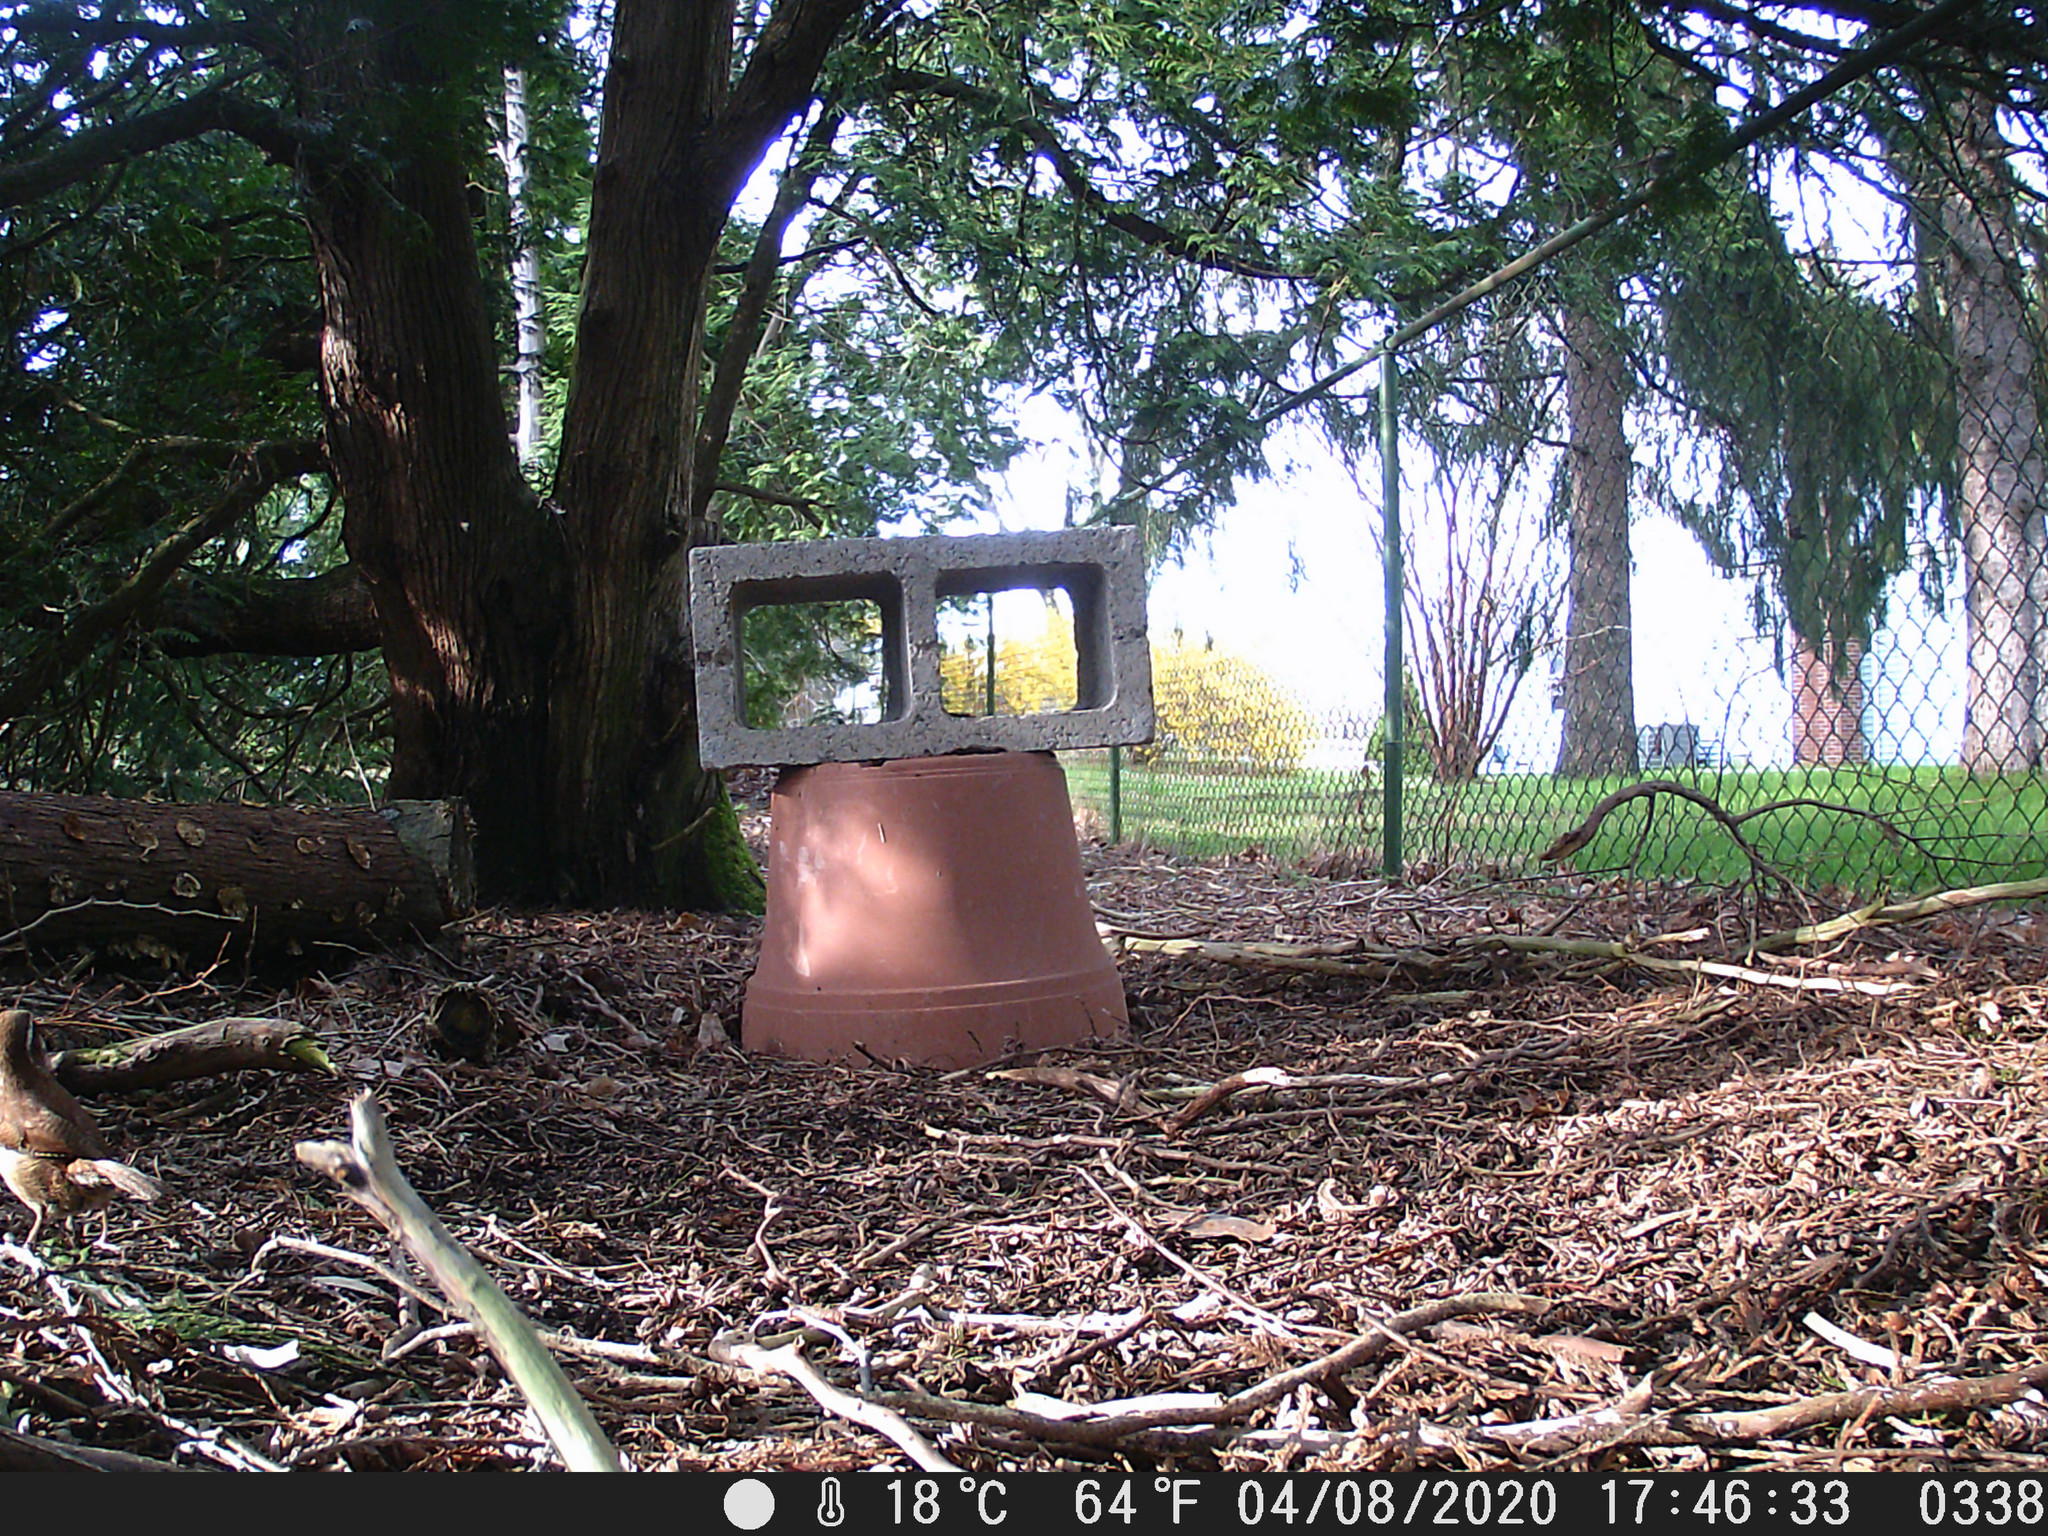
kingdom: Animalia
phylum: Chordata
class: Aves
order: Passeriformes
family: Troglodytidae
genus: Thryothorus
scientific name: Thryothorus ludovicianus
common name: Carolina wren
